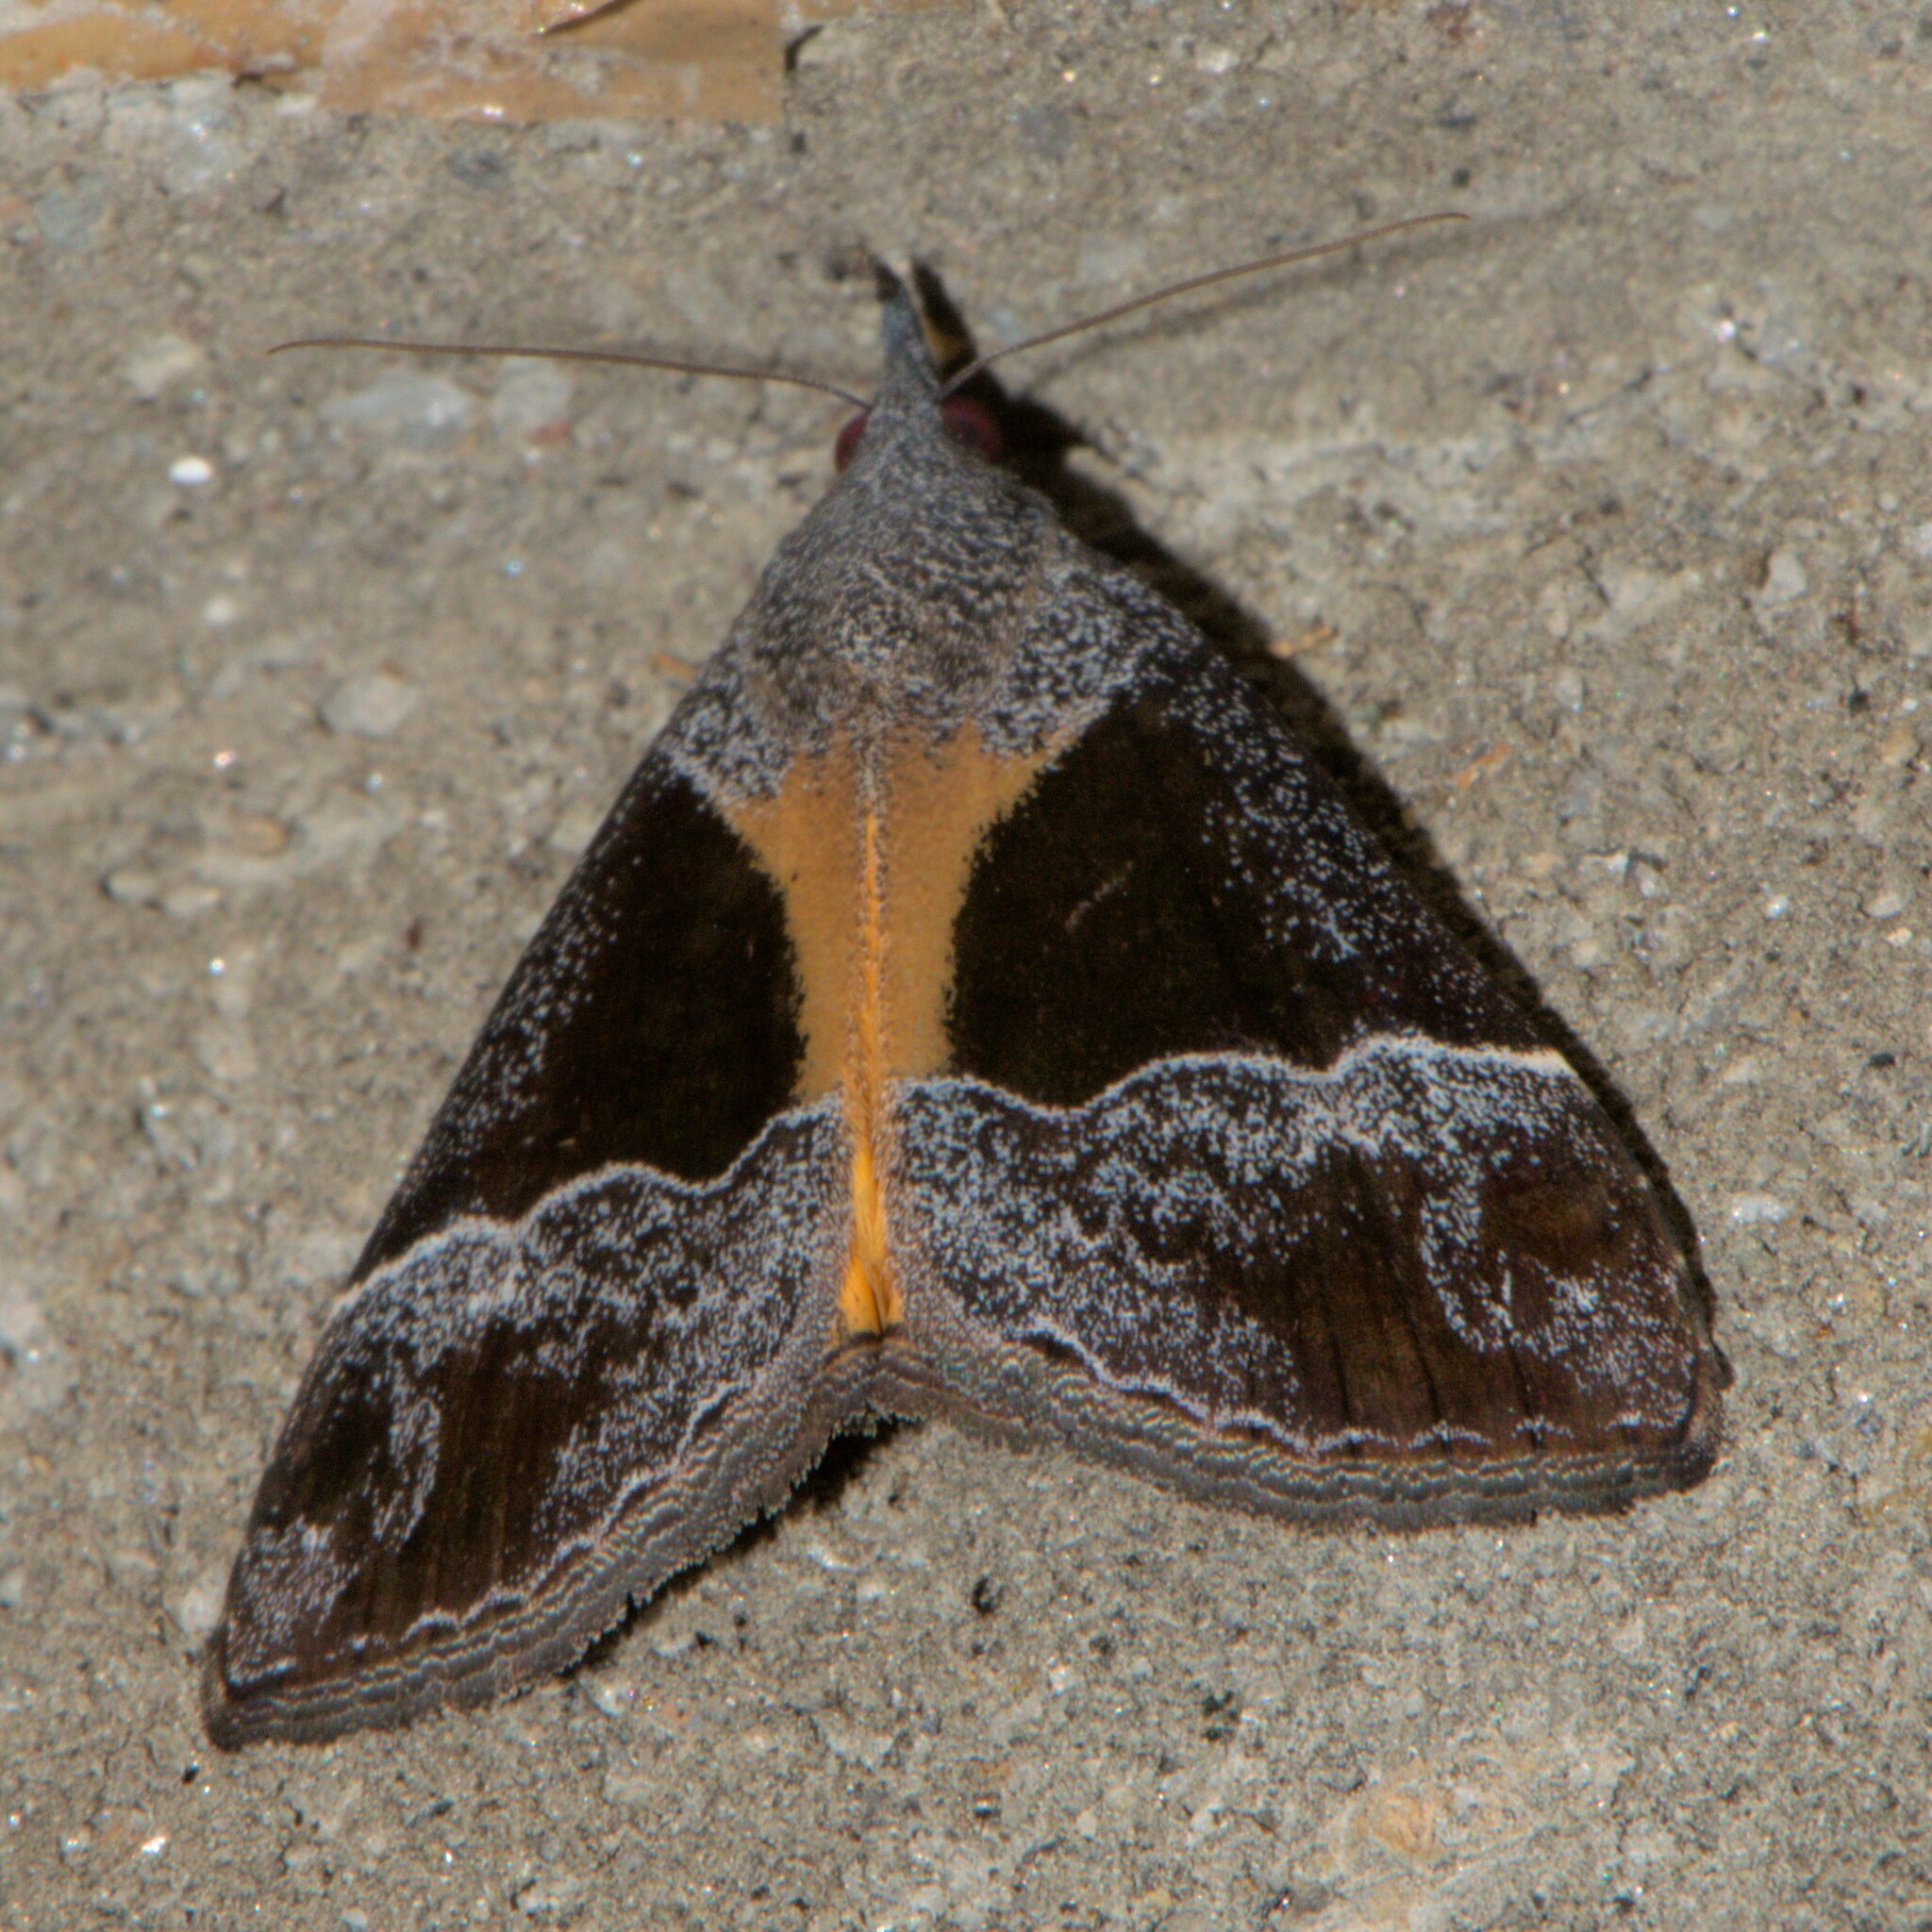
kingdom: Animalia
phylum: Arthropoda
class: Insecta
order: Lepidoptera
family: Erebidae
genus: Hypena
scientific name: Hypena quadralis
